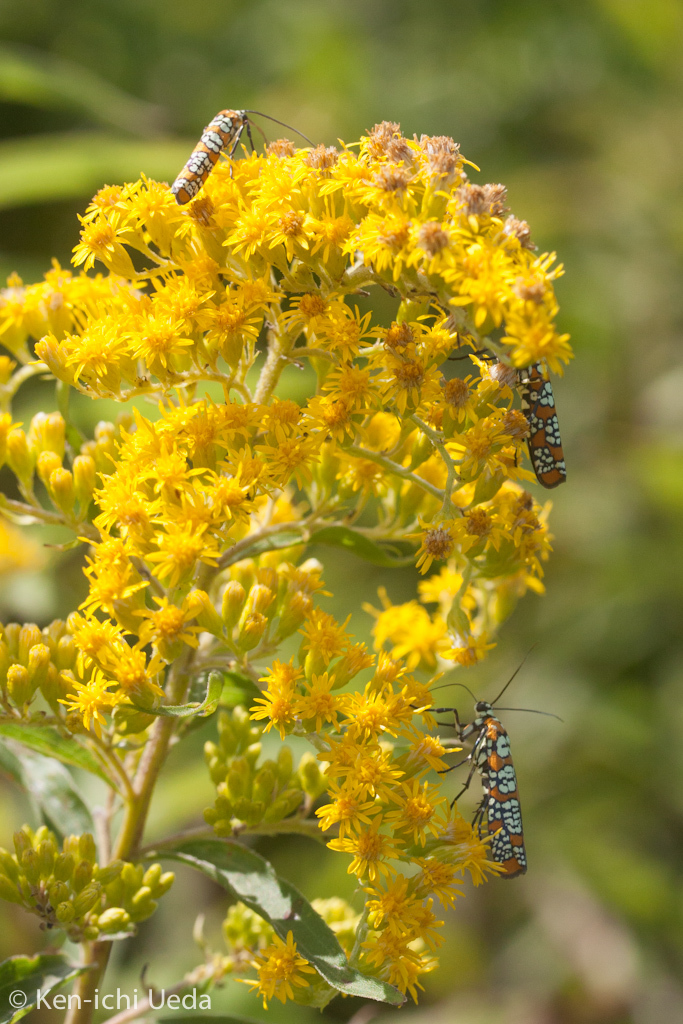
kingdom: Animalia
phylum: Arthropoda
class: Insecta
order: Lepidoptera
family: Attevidae
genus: Atteva
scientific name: Atteva punctella
